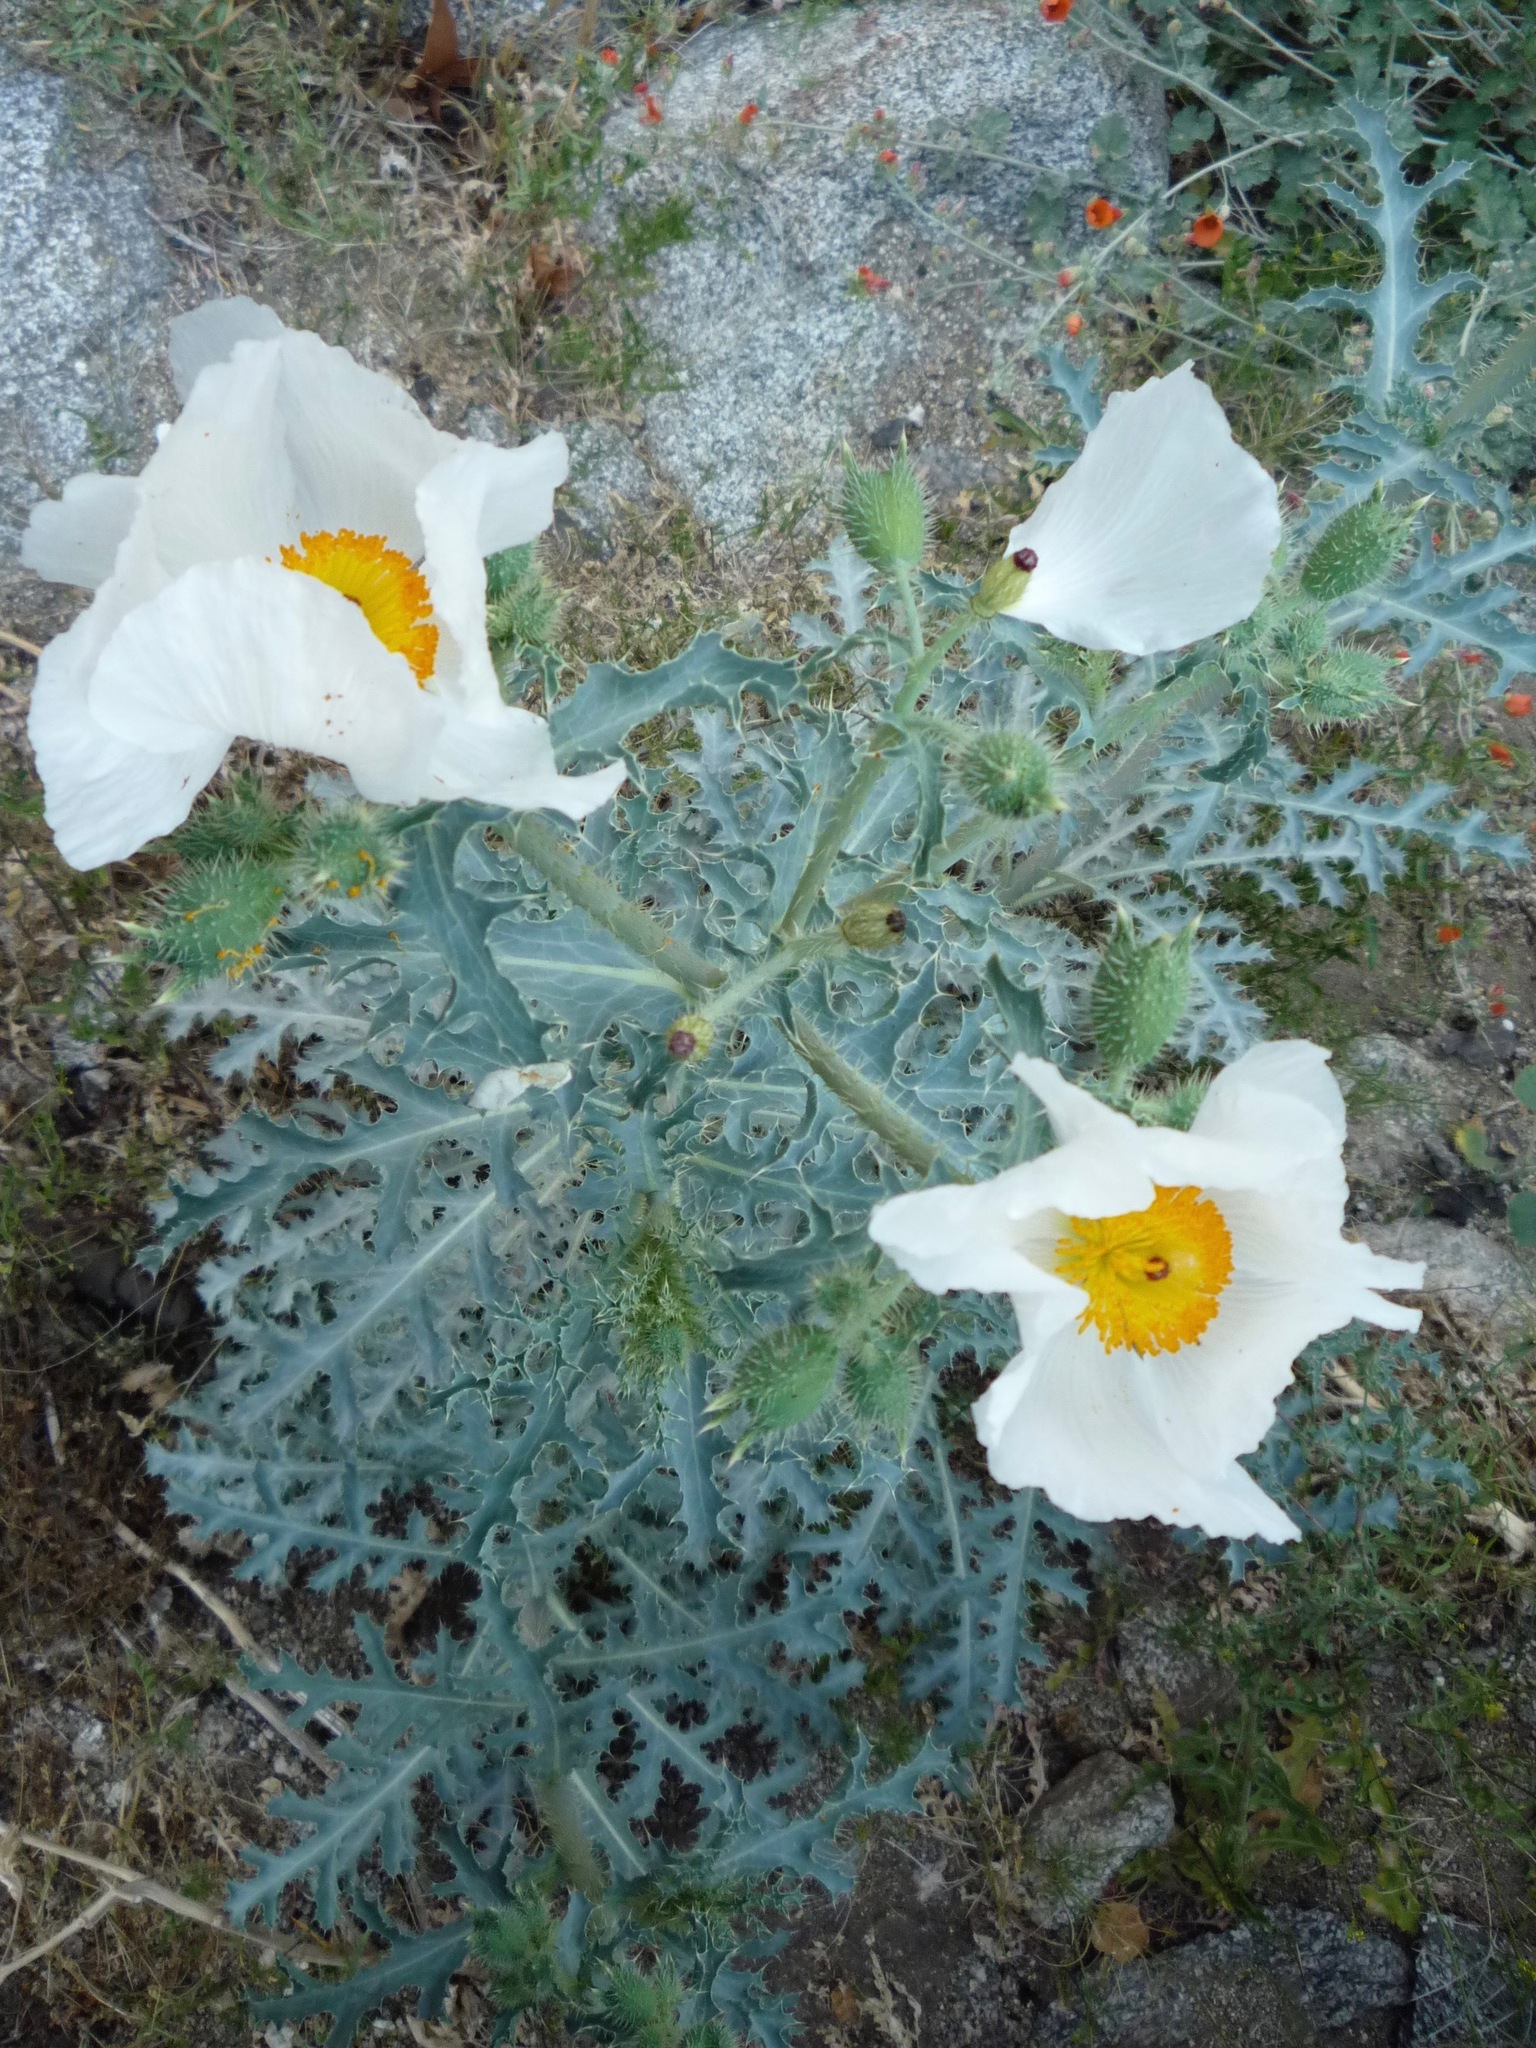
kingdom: Plantae
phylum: Tracheophyta
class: Magnoliopsida
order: Ranunculales
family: Papaveraceae
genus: Argemone
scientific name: Argemone munita
